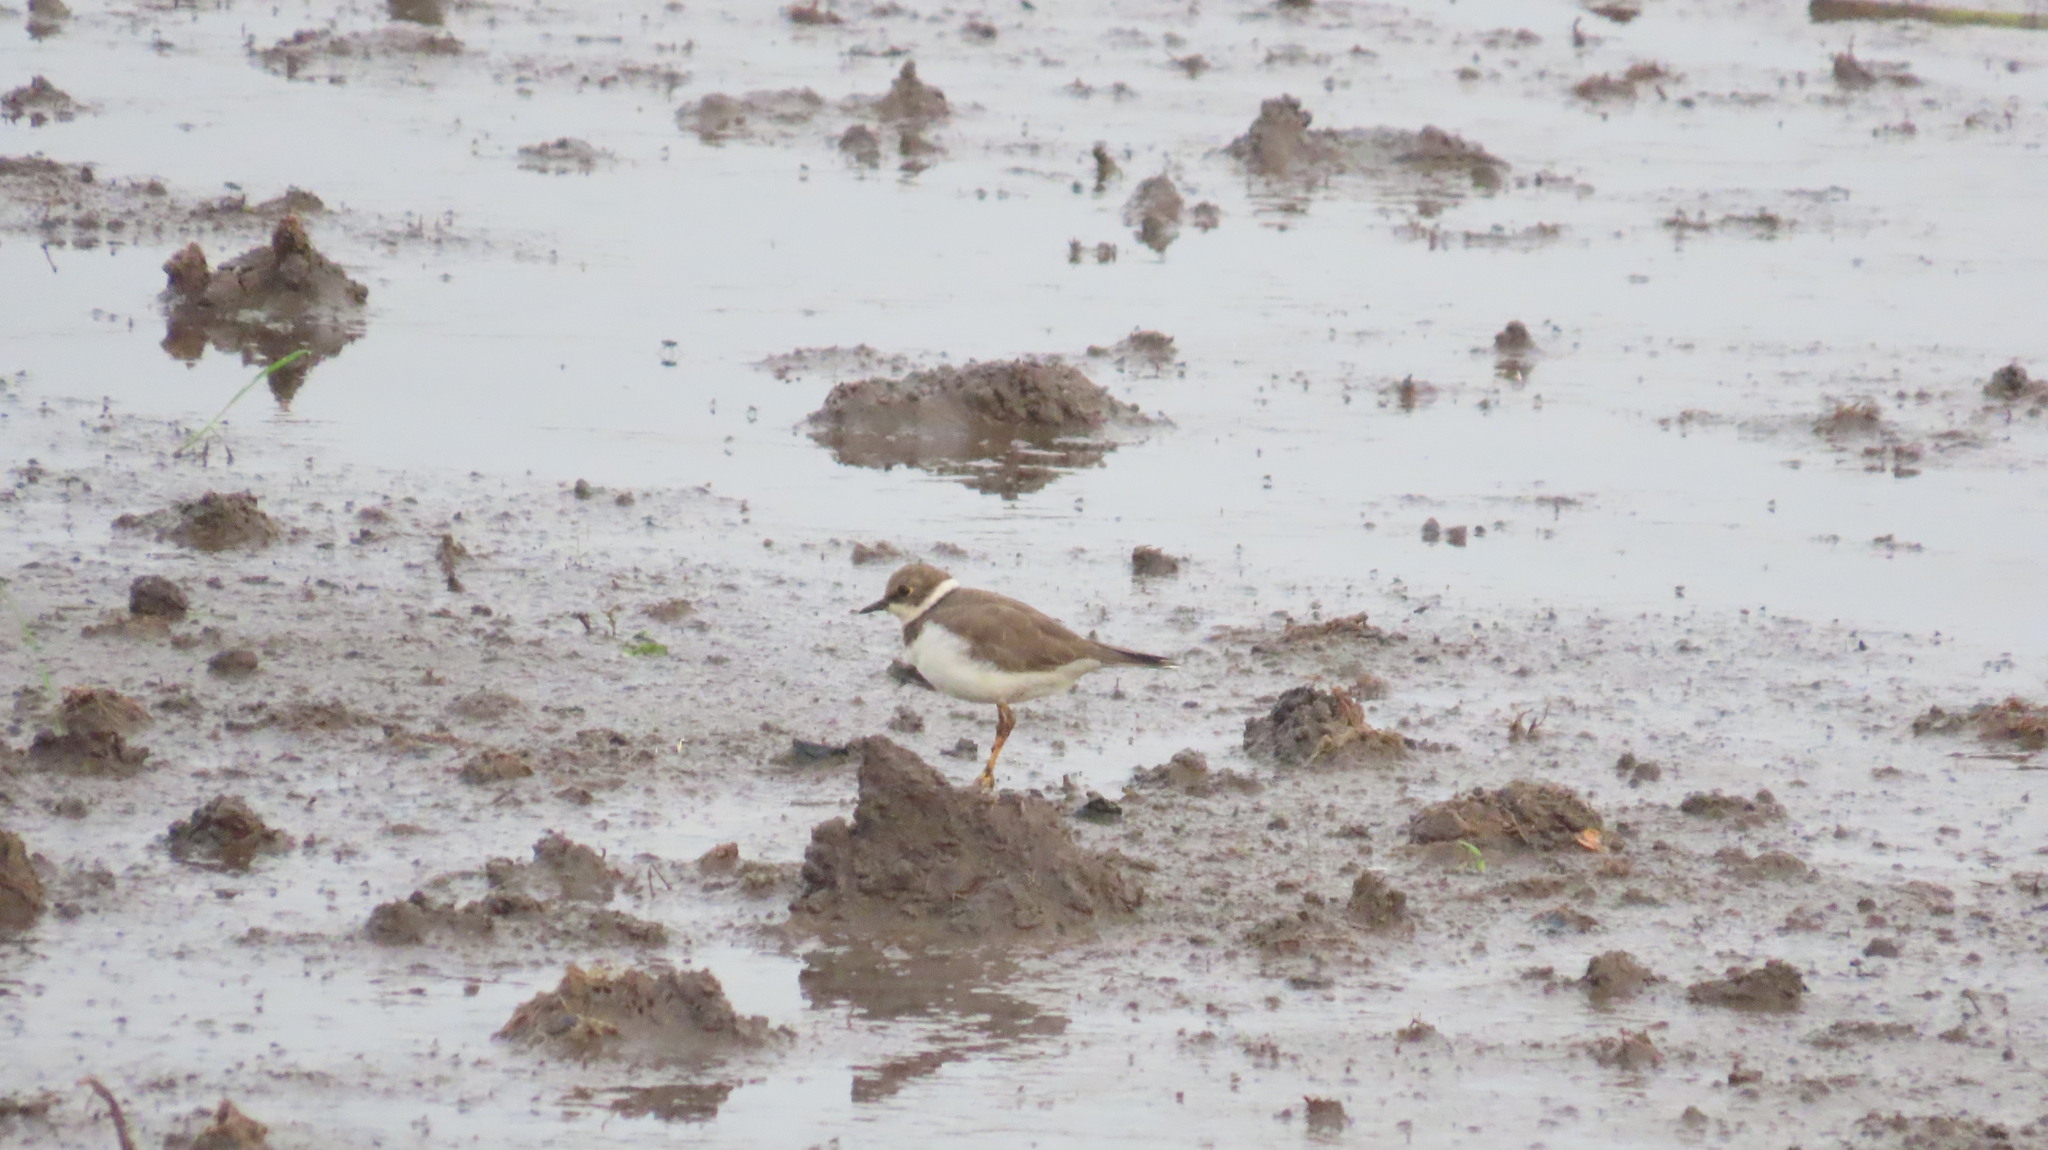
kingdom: Animalia
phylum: Chordata
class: Aves
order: Charadriiformes
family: Charadriidae
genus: Charadrius
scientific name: Charadrius dubius
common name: Little ringed plover
